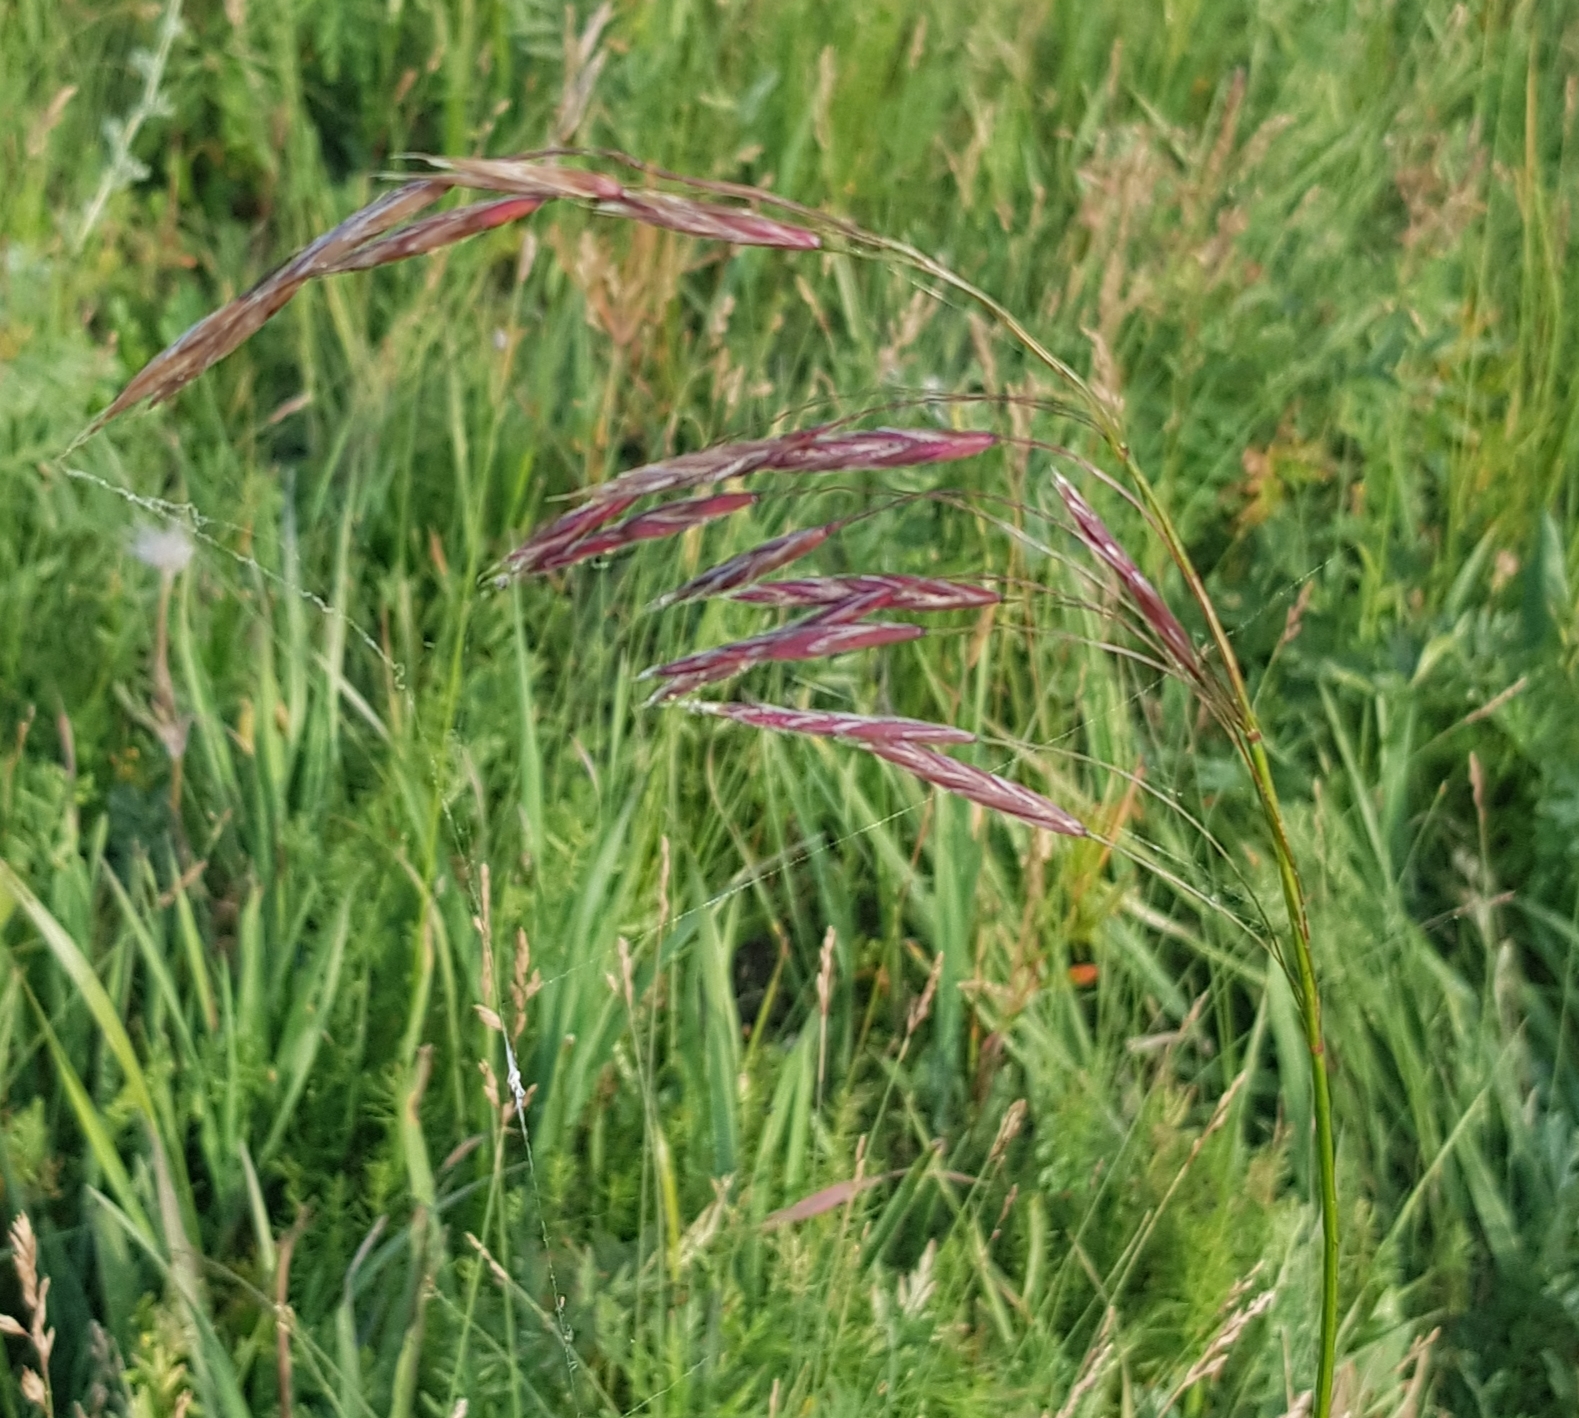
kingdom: Plantae
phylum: Tracheophyta
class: Liliopsida
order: Poales
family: Poaceae
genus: Bromus
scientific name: Bromus inermis
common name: Smooth brome
